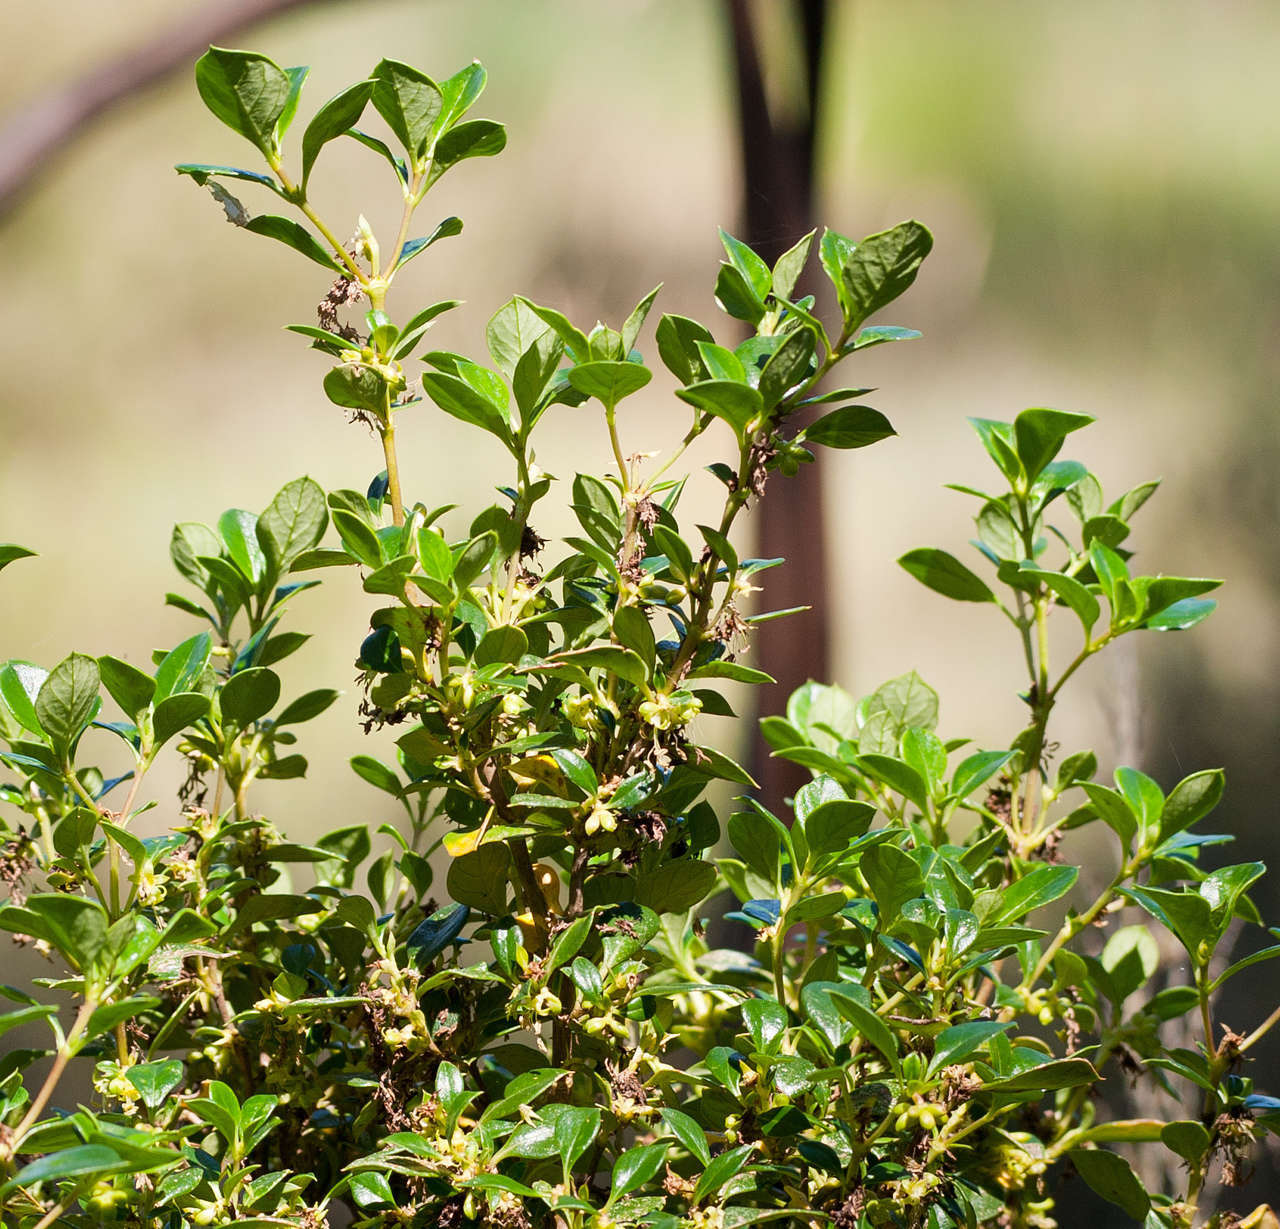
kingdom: Plantae
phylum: Tracheophyta
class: Magnoliopsida
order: Gentianales
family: Rubiaceae
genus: Coprosma
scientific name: Coprosma hirtella
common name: Rough coprosma
